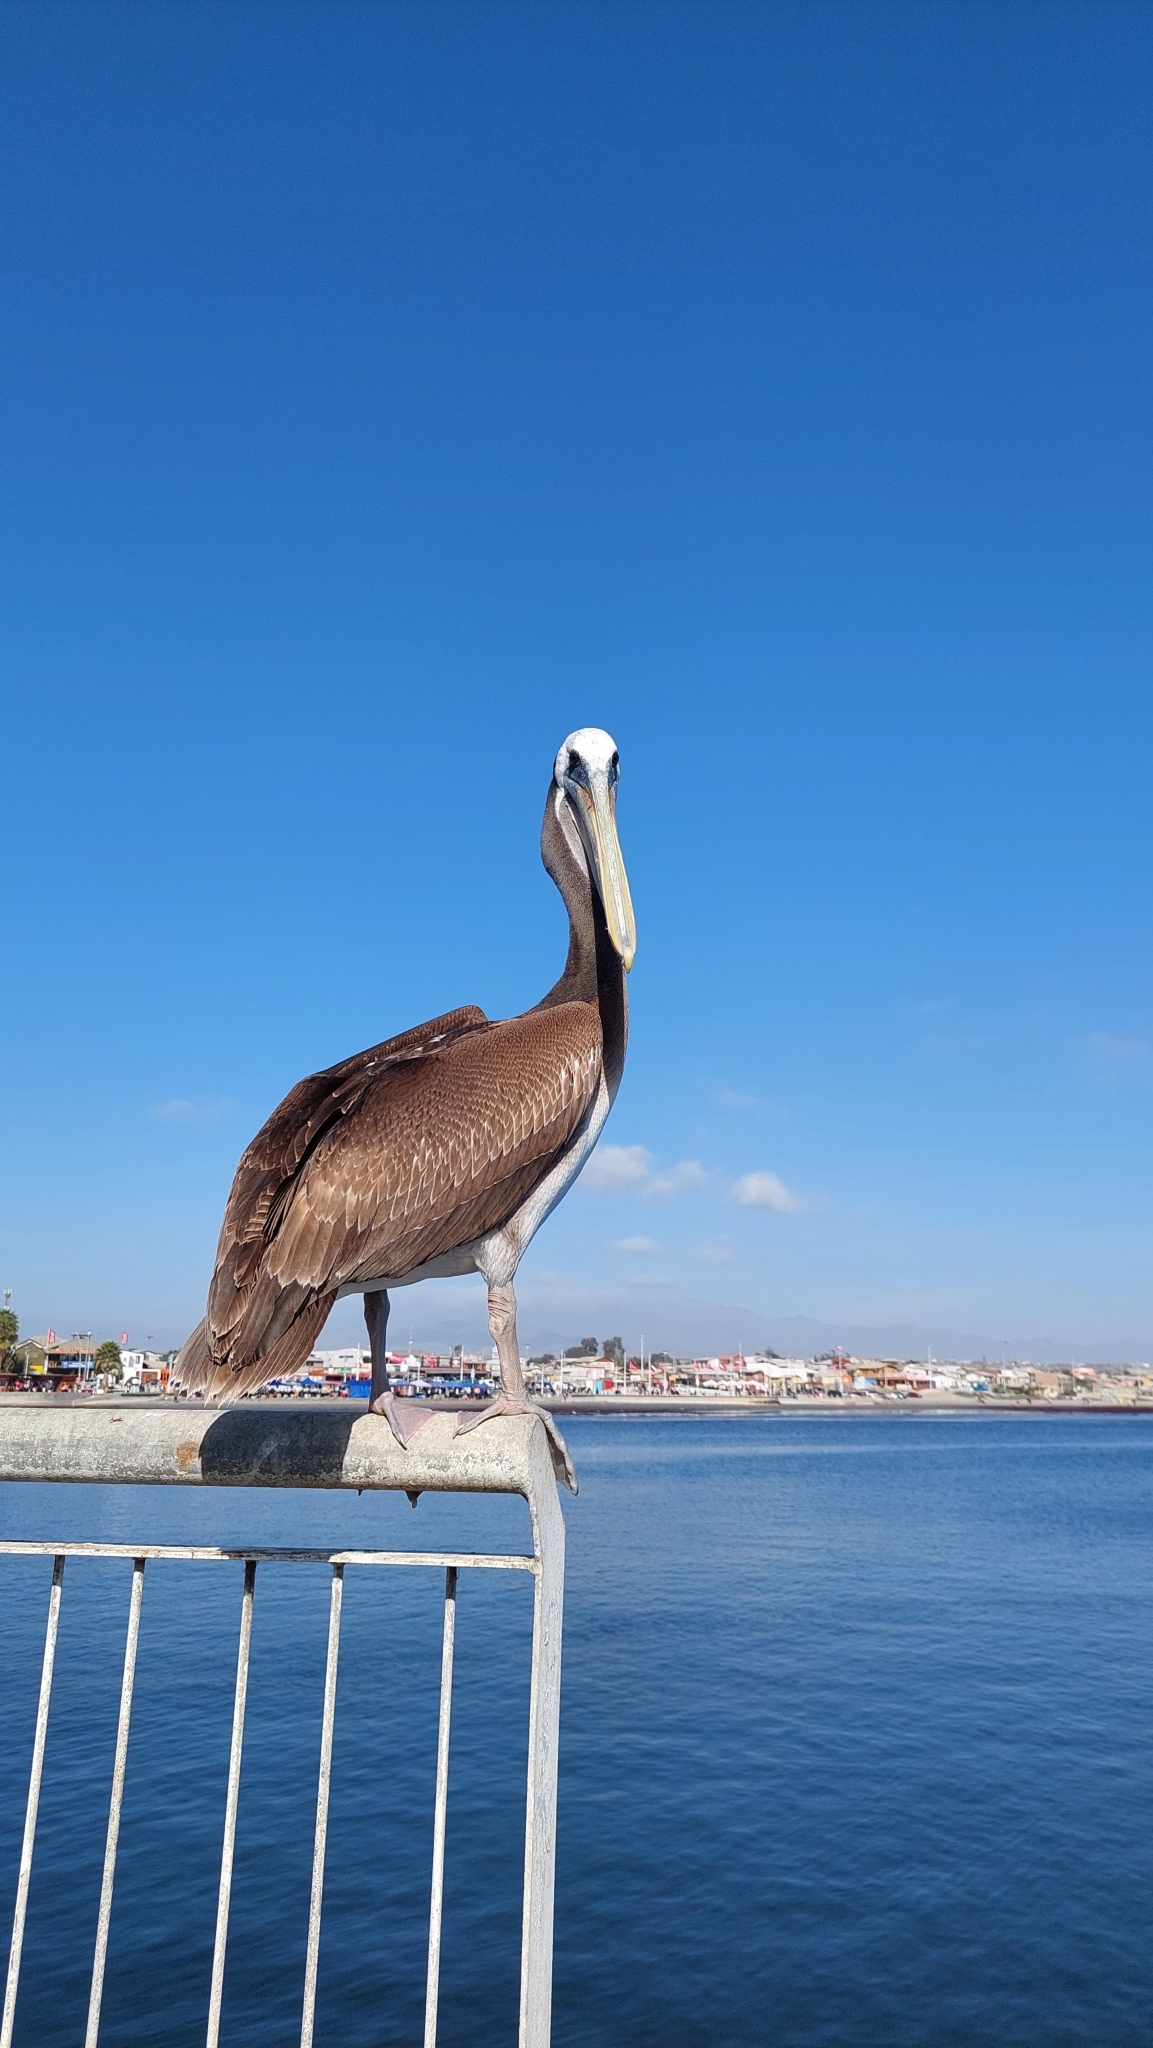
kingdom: Animalia
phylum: Chordata
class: Aves
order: Pelecaniformes
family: Pelecanidae
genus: Pelecanus
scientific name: Pelecanus thagus
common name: Peruvian pelican
